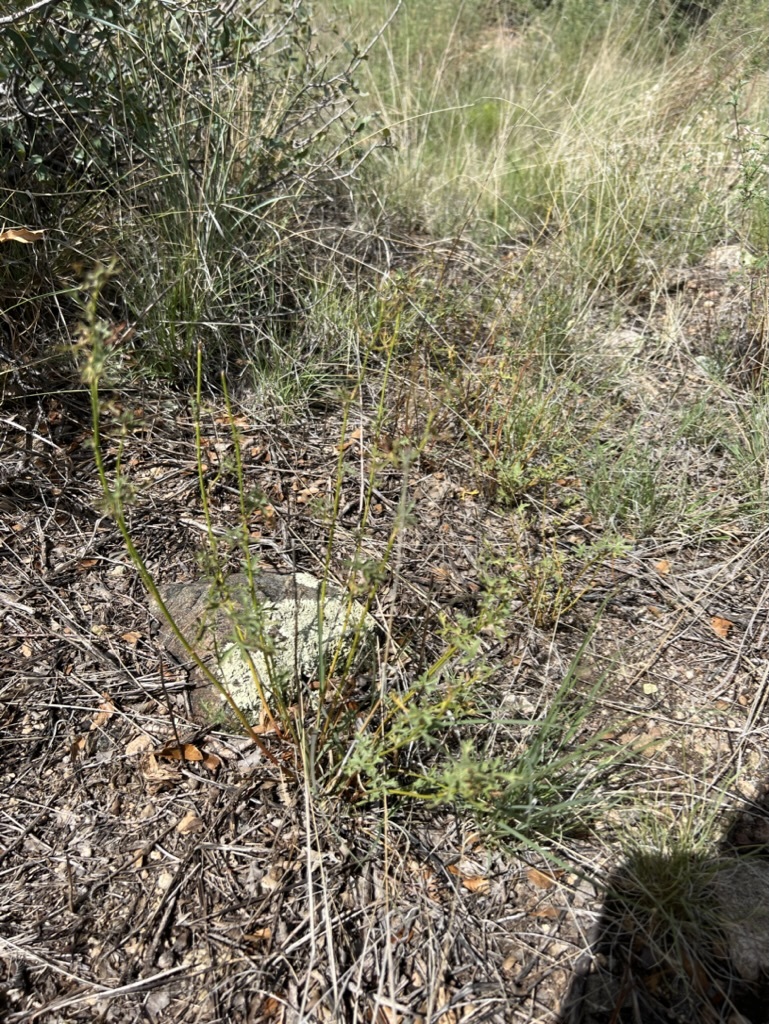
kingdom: Plantae
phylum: Tracheophyta
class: Magnoliopsida
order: Malvales
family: Malvaceae
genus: Sphaeralcea
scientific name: Sphaeralcea rusbyi
